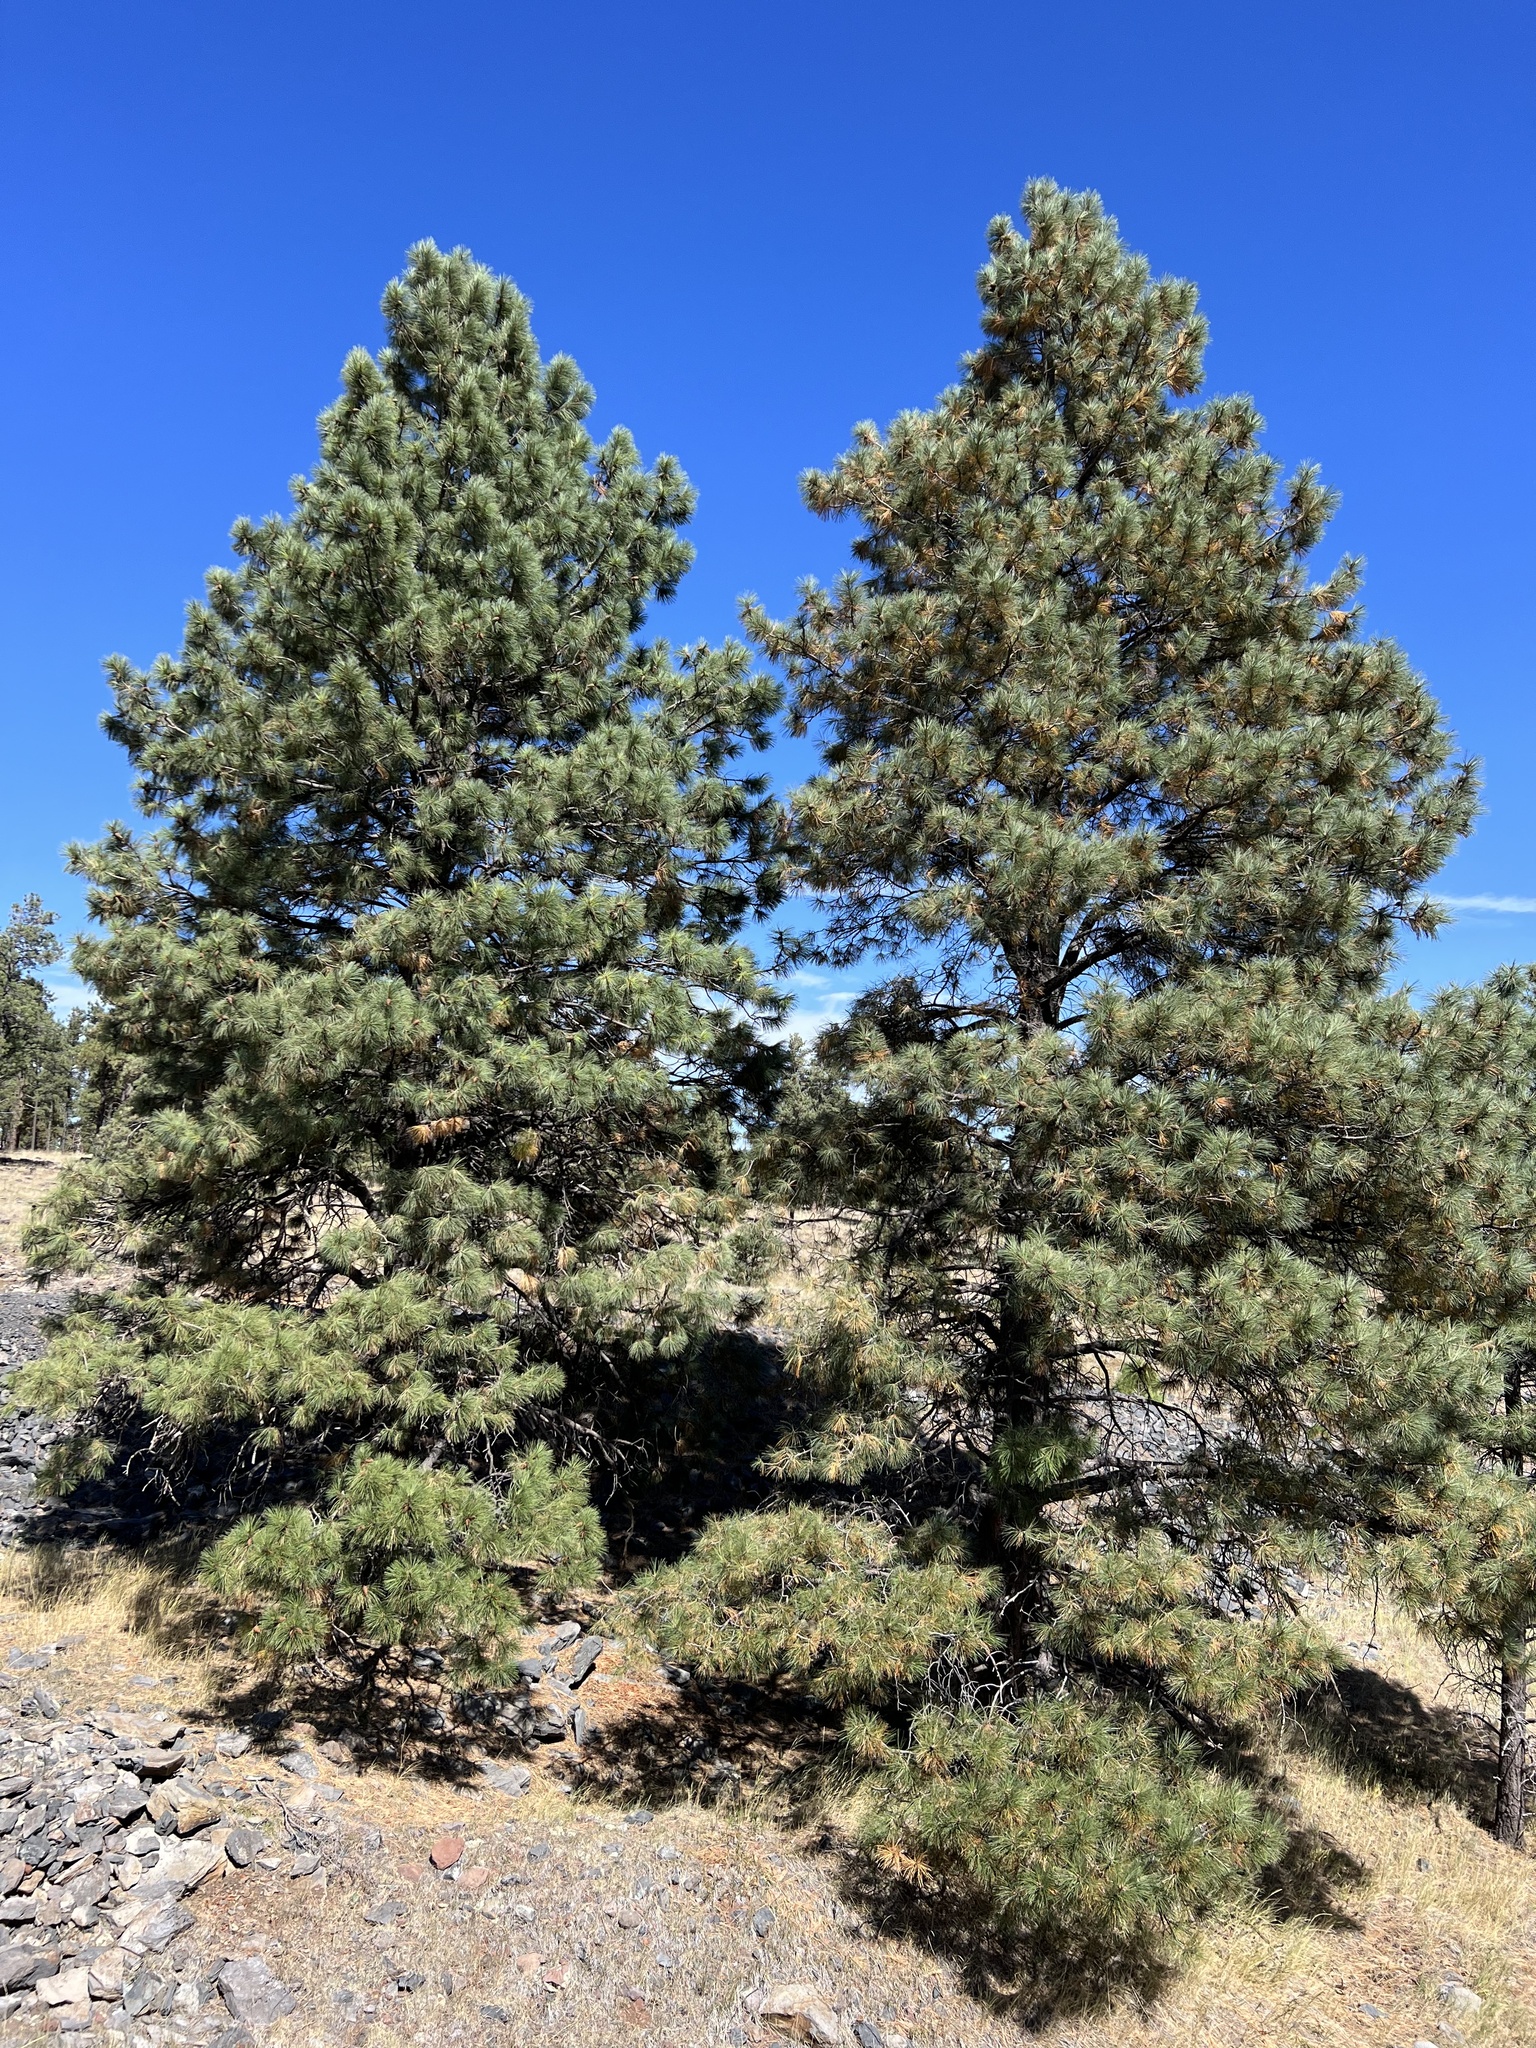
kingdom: Plantae
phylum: Tracheophyta
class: Pinopsida
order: Pinales
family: Pinaceae
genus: Pinus
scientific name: Pinus ponderosa
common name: Western yellow-pine
